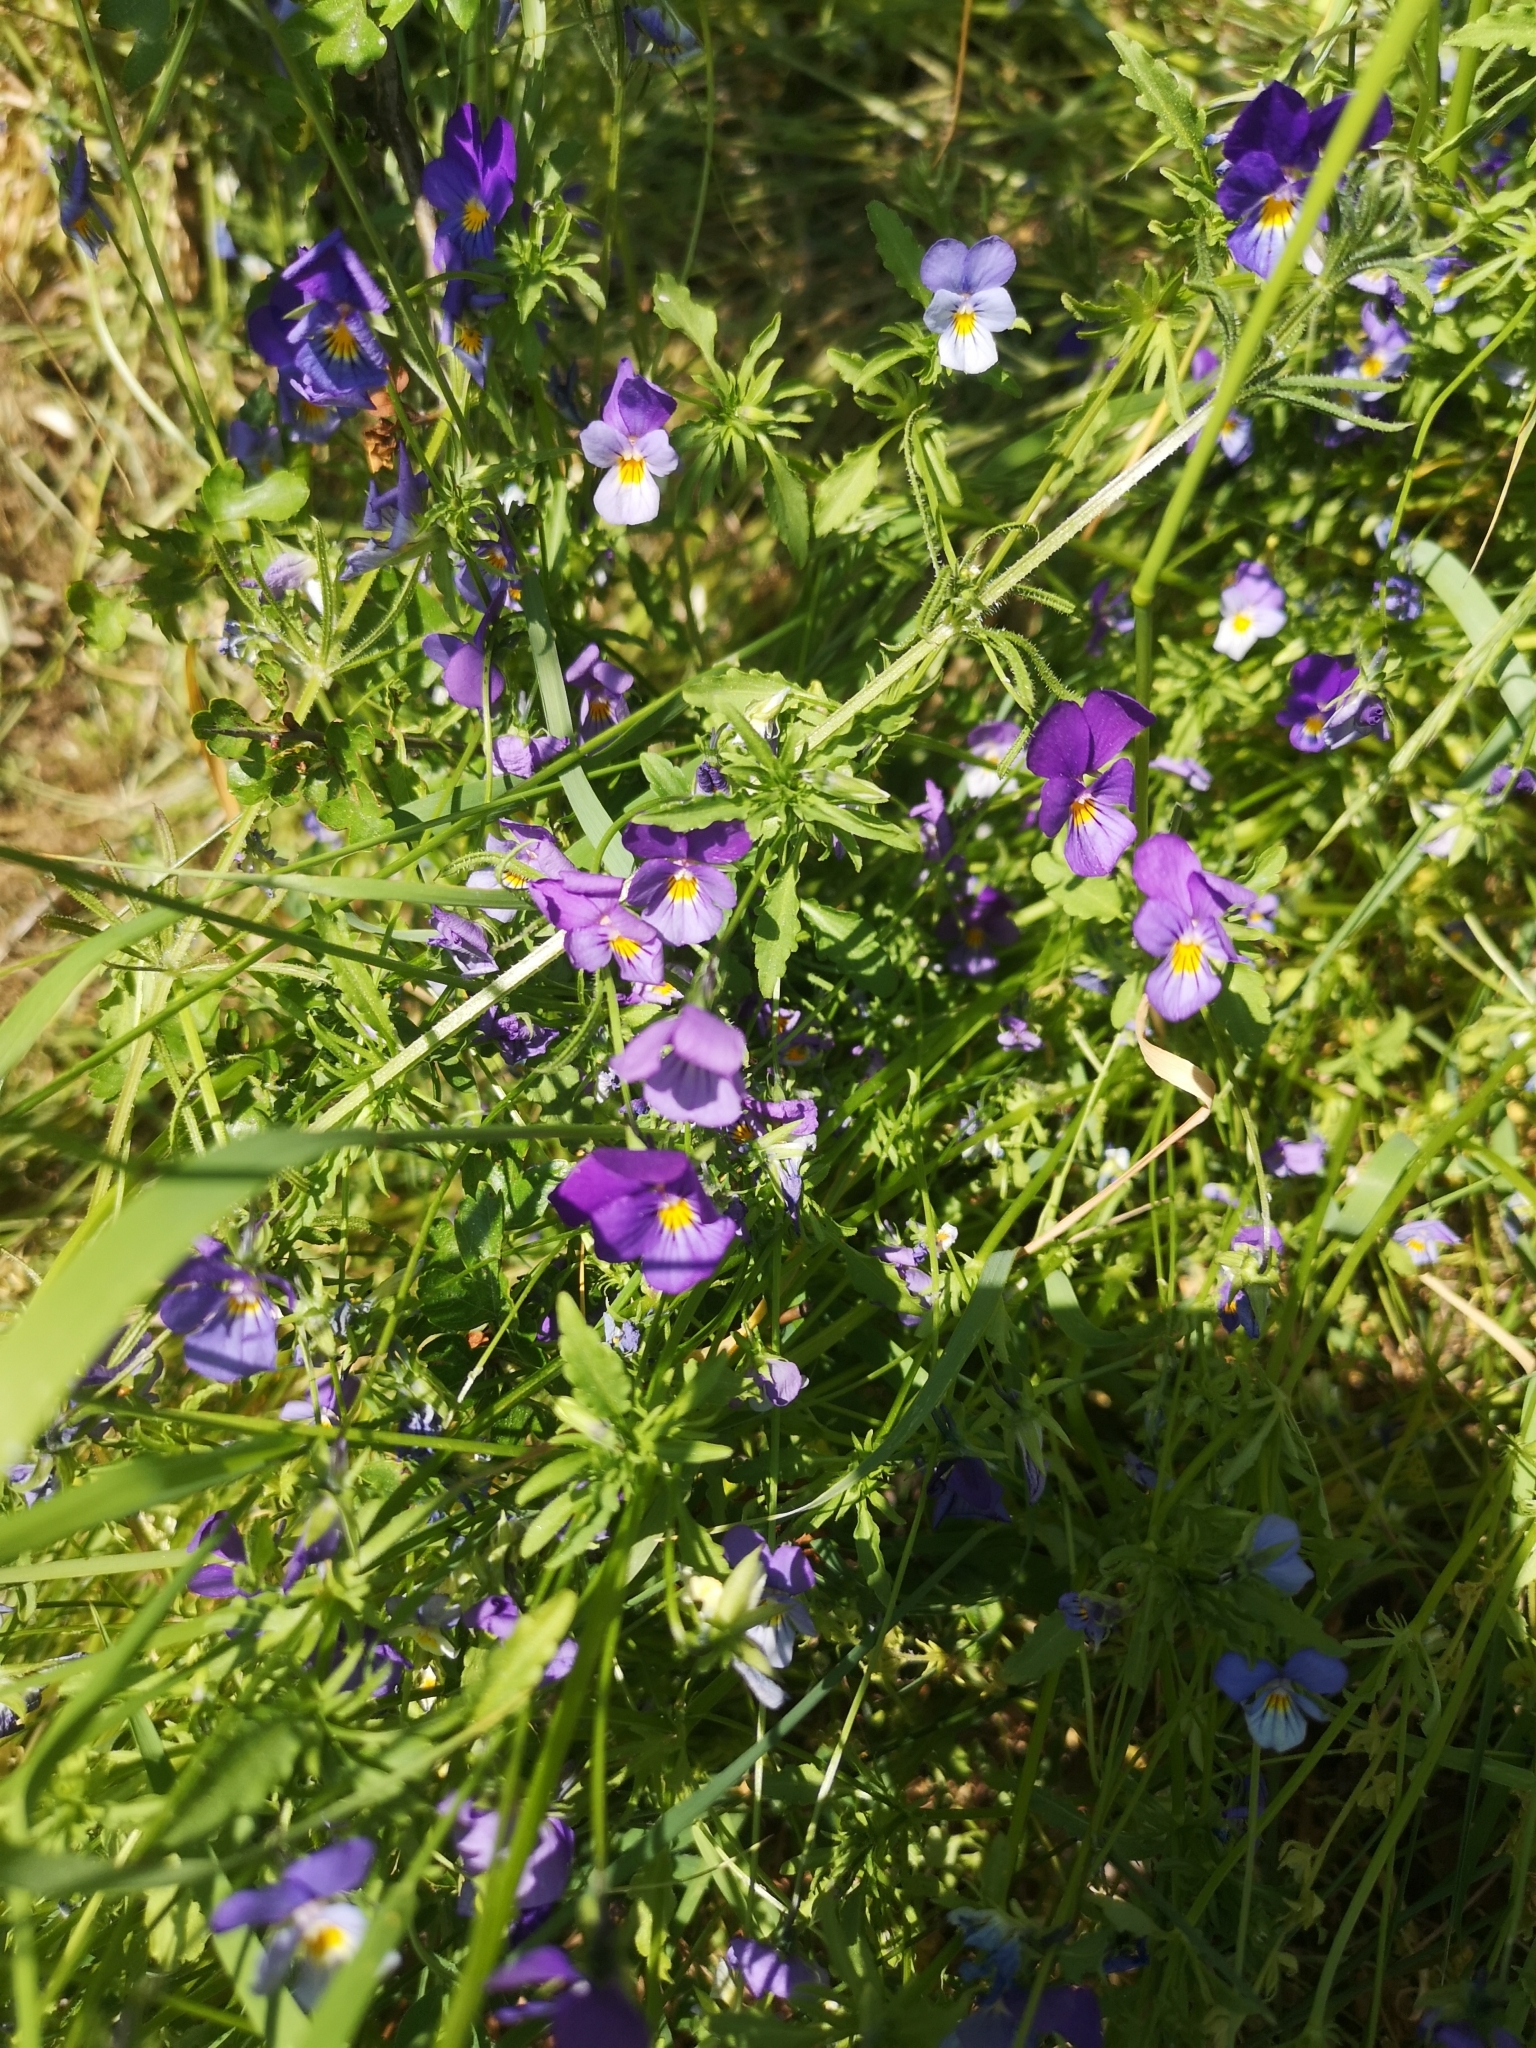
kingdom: Plantae
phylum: Tracheophyta
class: Magnoliopsida
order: Malpighiales
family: Violaceae
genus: Viola
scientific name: Viola tricolor
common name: Pansy
